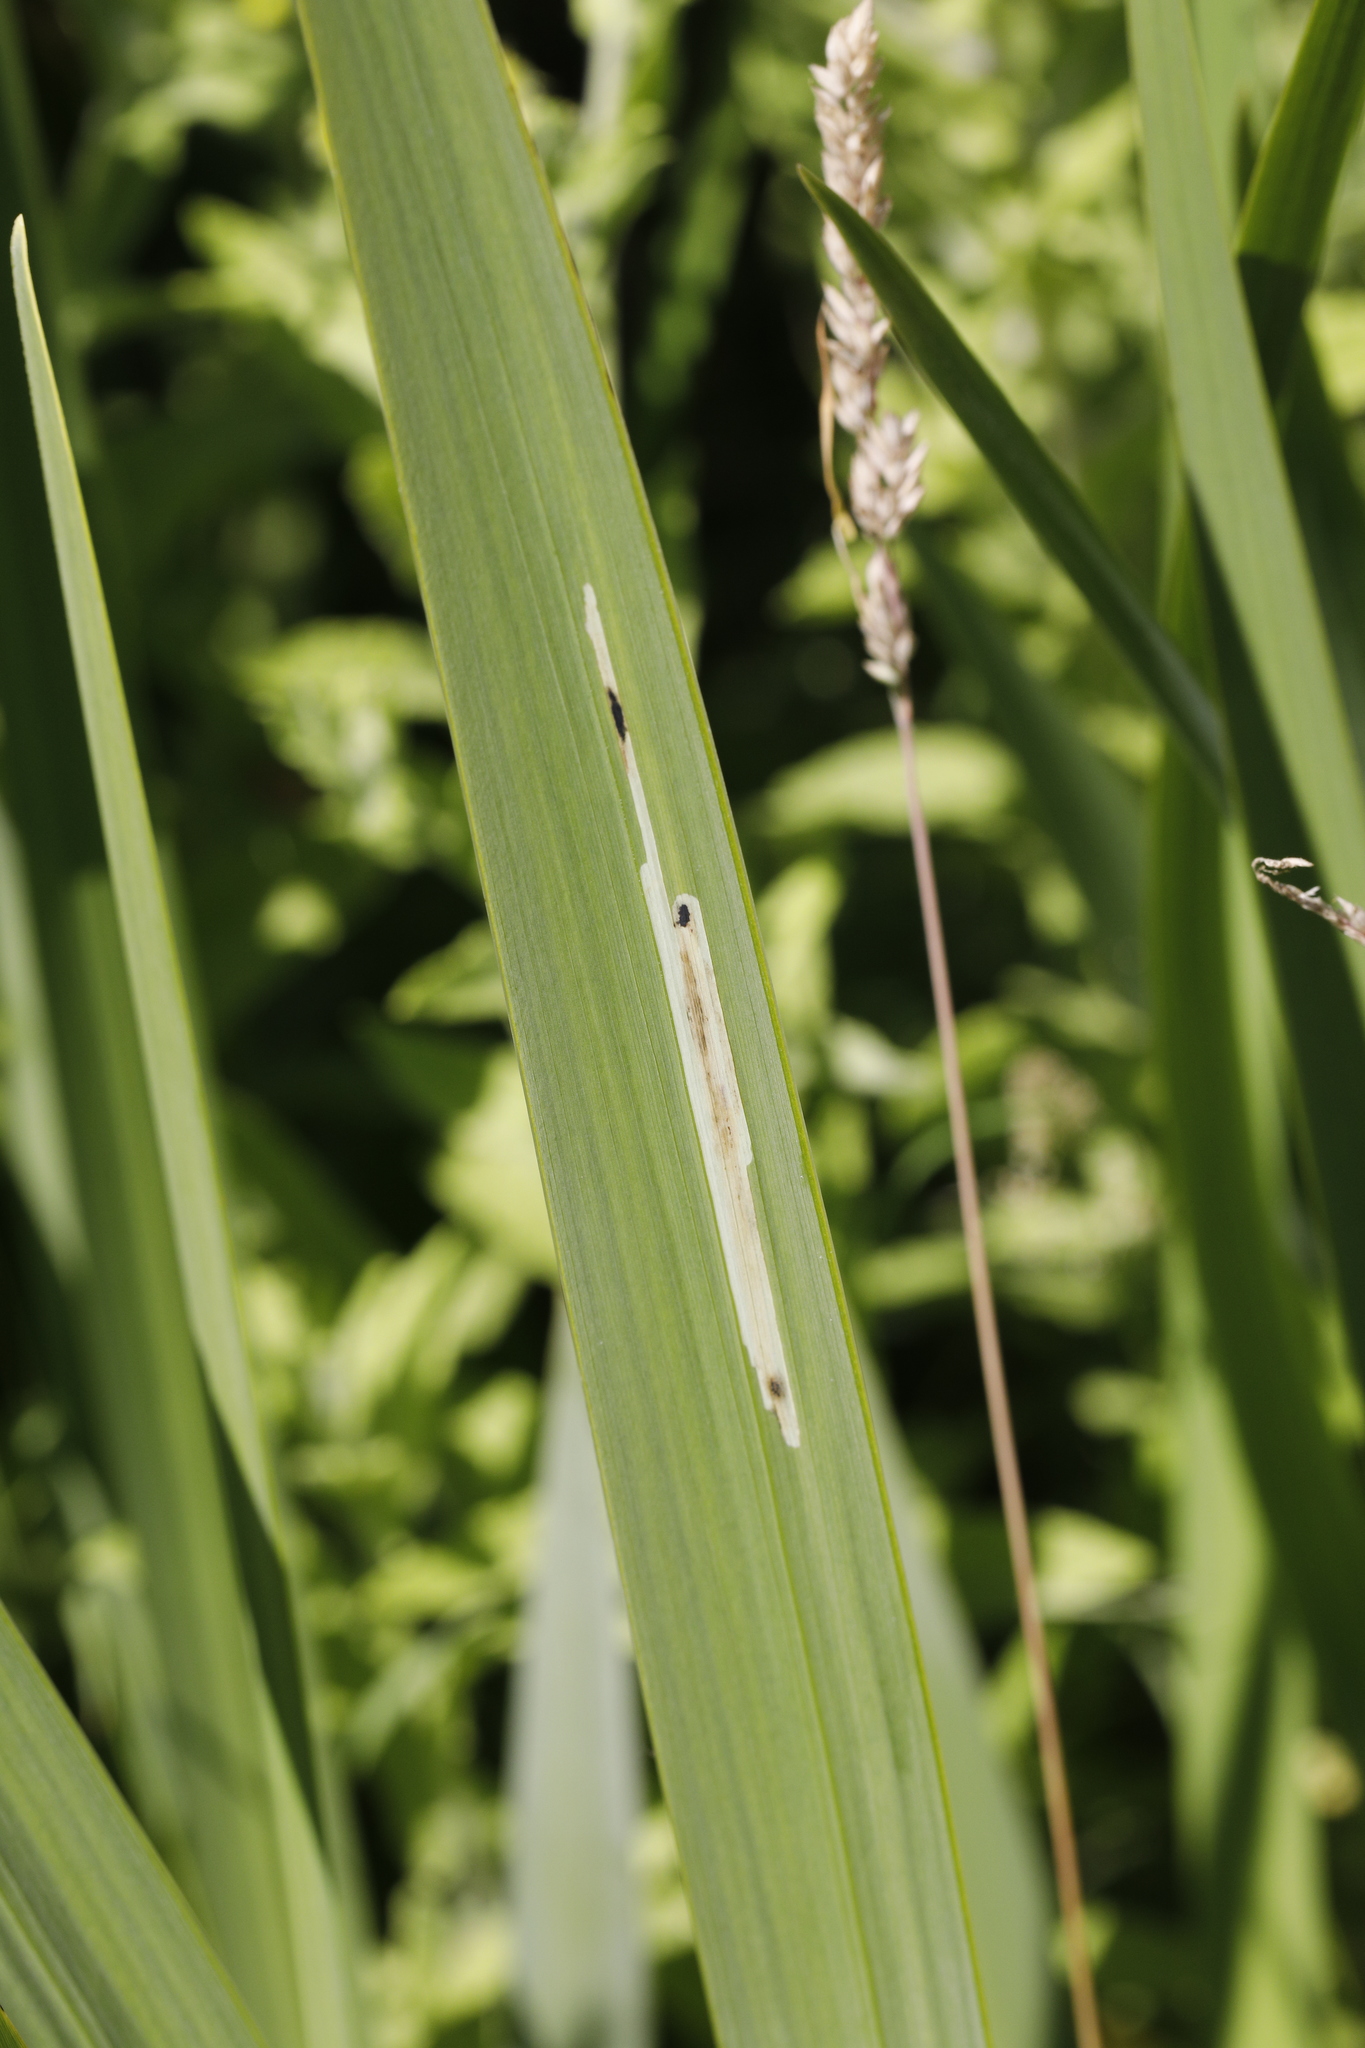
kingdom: Animalia
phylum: Arthropoda
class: Insecta
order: Diptera
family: Agromyzidae
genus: Cerodontha
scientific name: Cerodontha ircos
